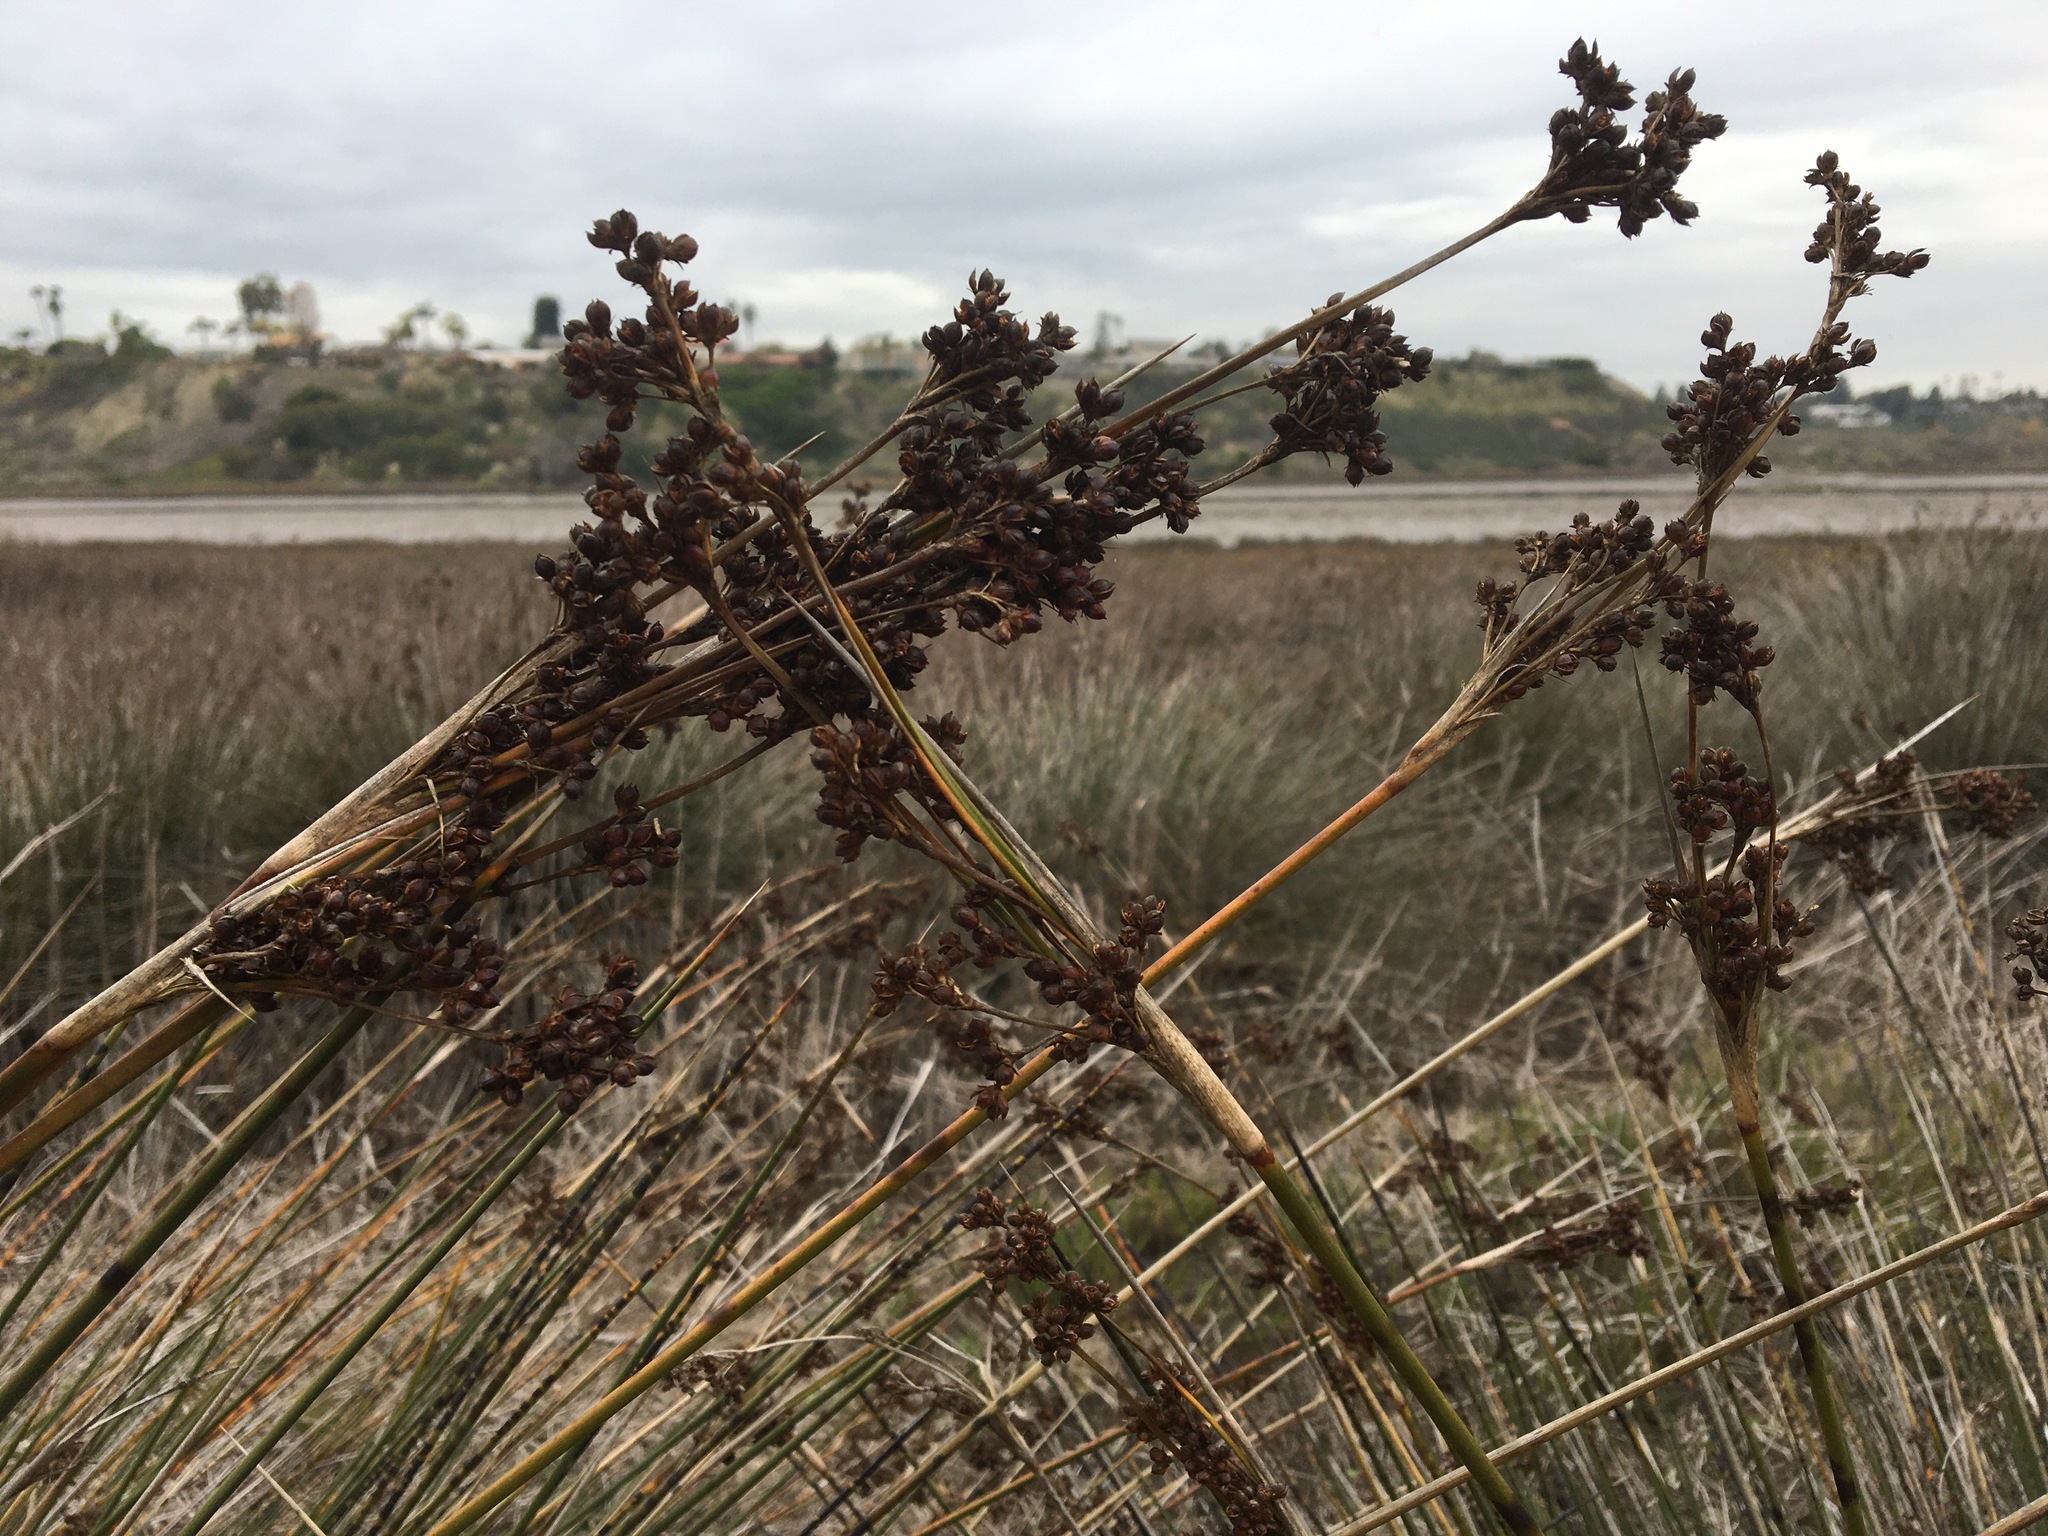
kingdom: Plantae
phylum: Tracheophyta
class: Liliopsida
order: Poales
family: Juncaceae
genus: Juncus
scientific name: Juncus acutus
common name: Sharp rush
